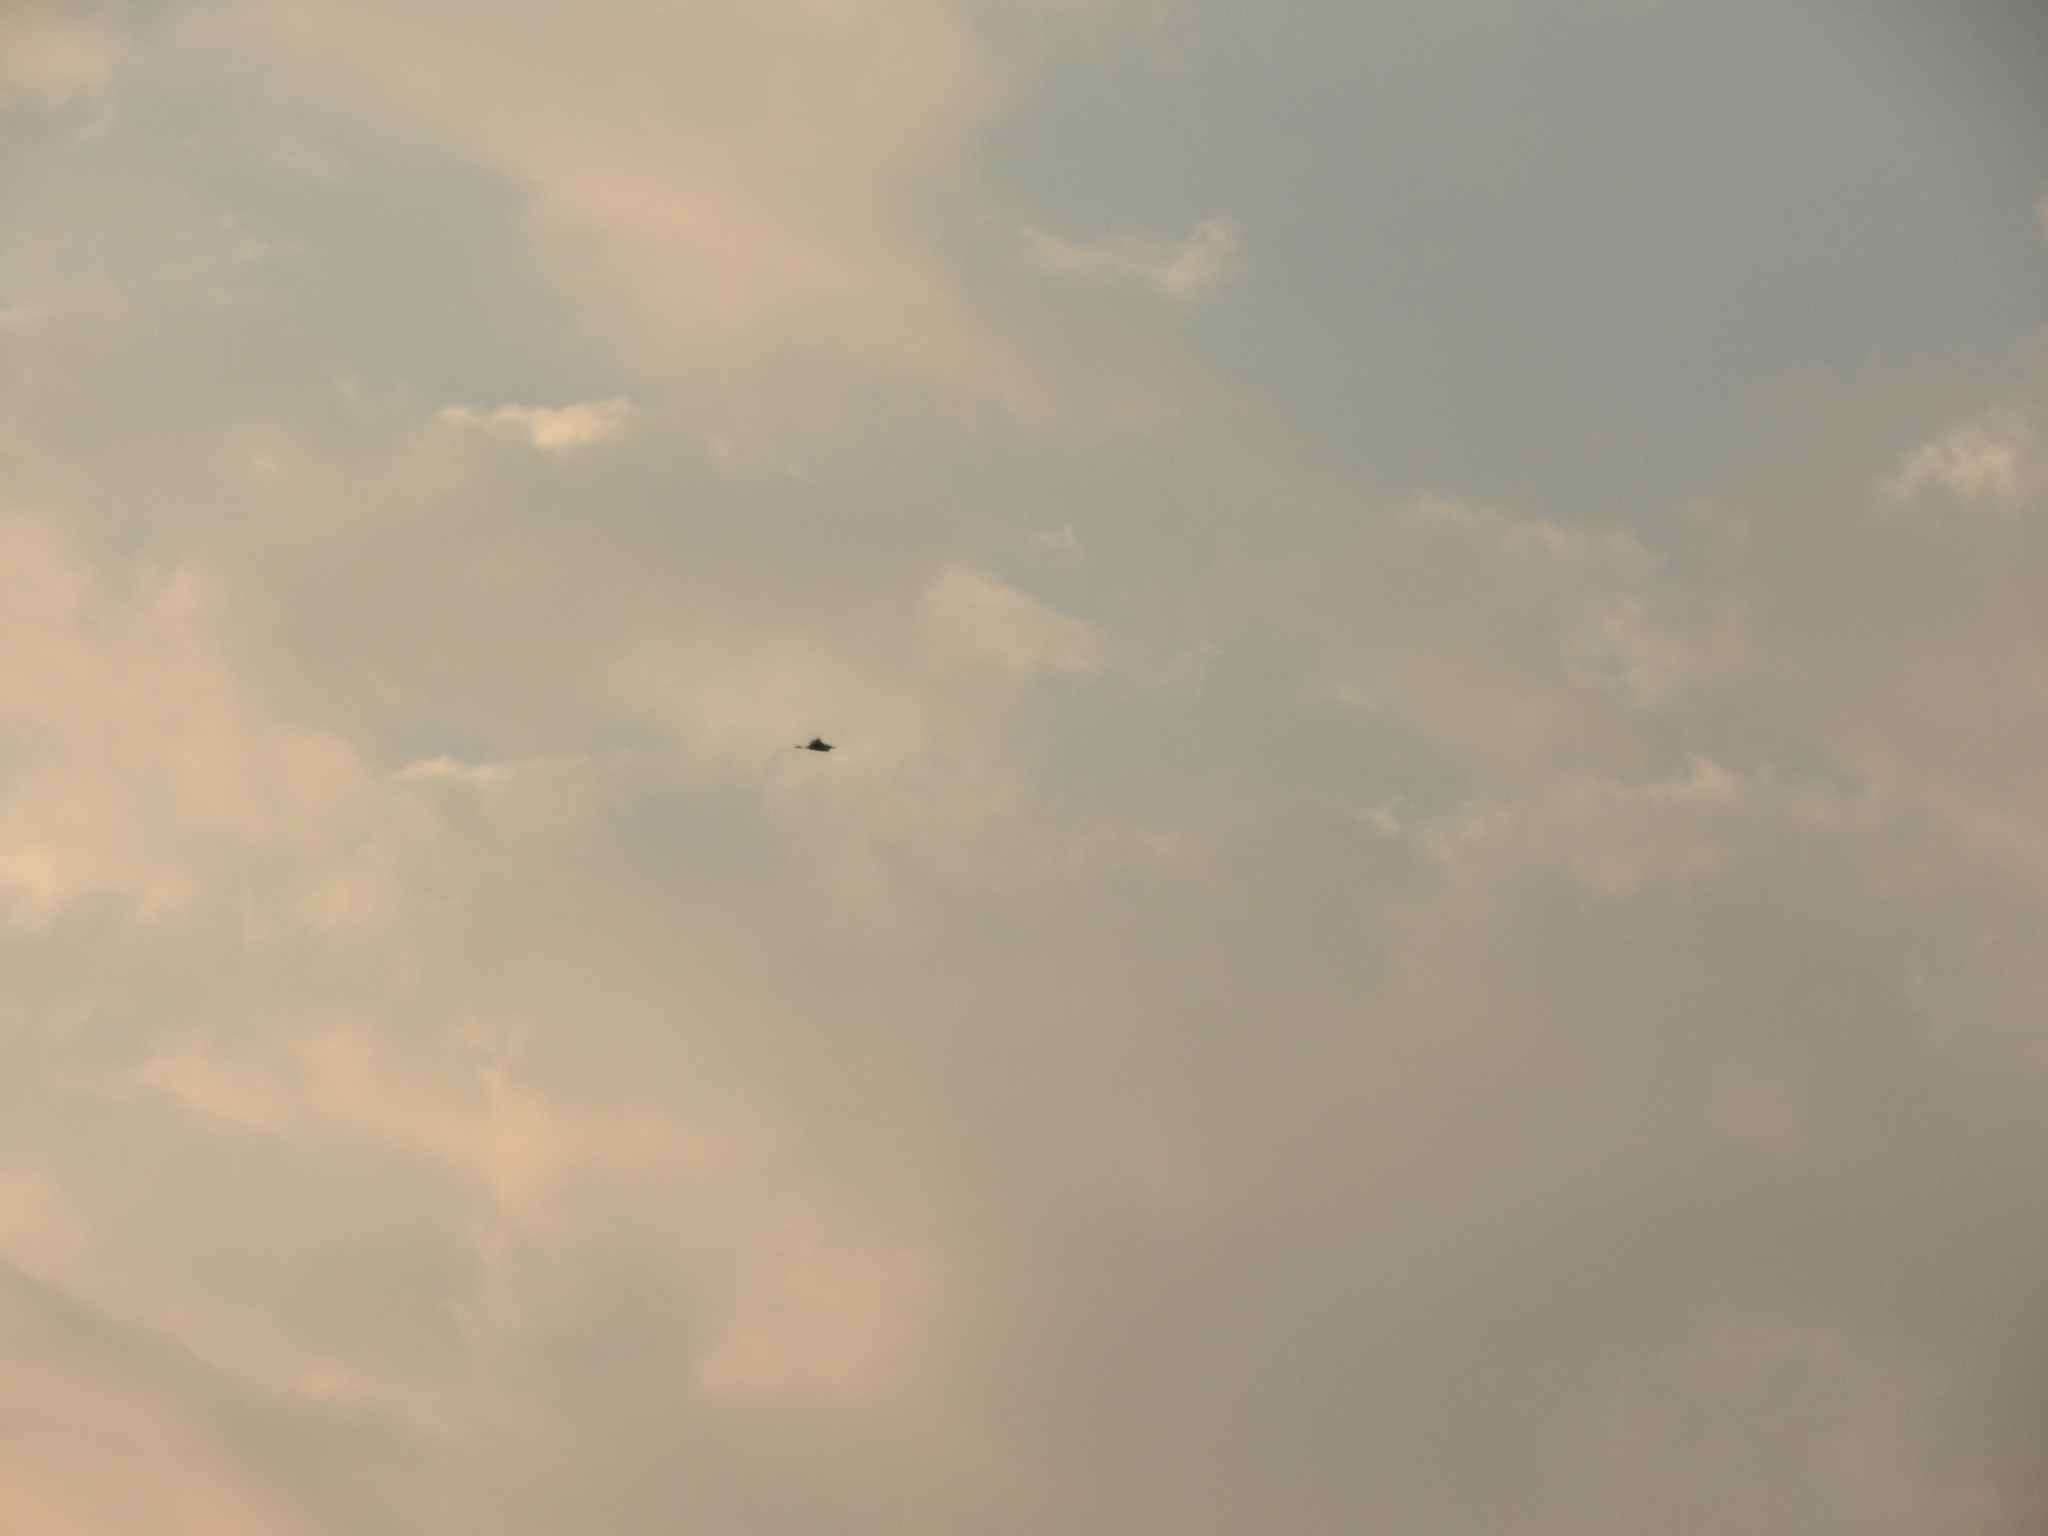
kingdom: Animalia
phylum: Chordata
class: Aves
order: Pelecaniformes
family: Ardeidae
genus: Bubulcus
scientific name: Bubulcus ibis
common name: Cattle egret
